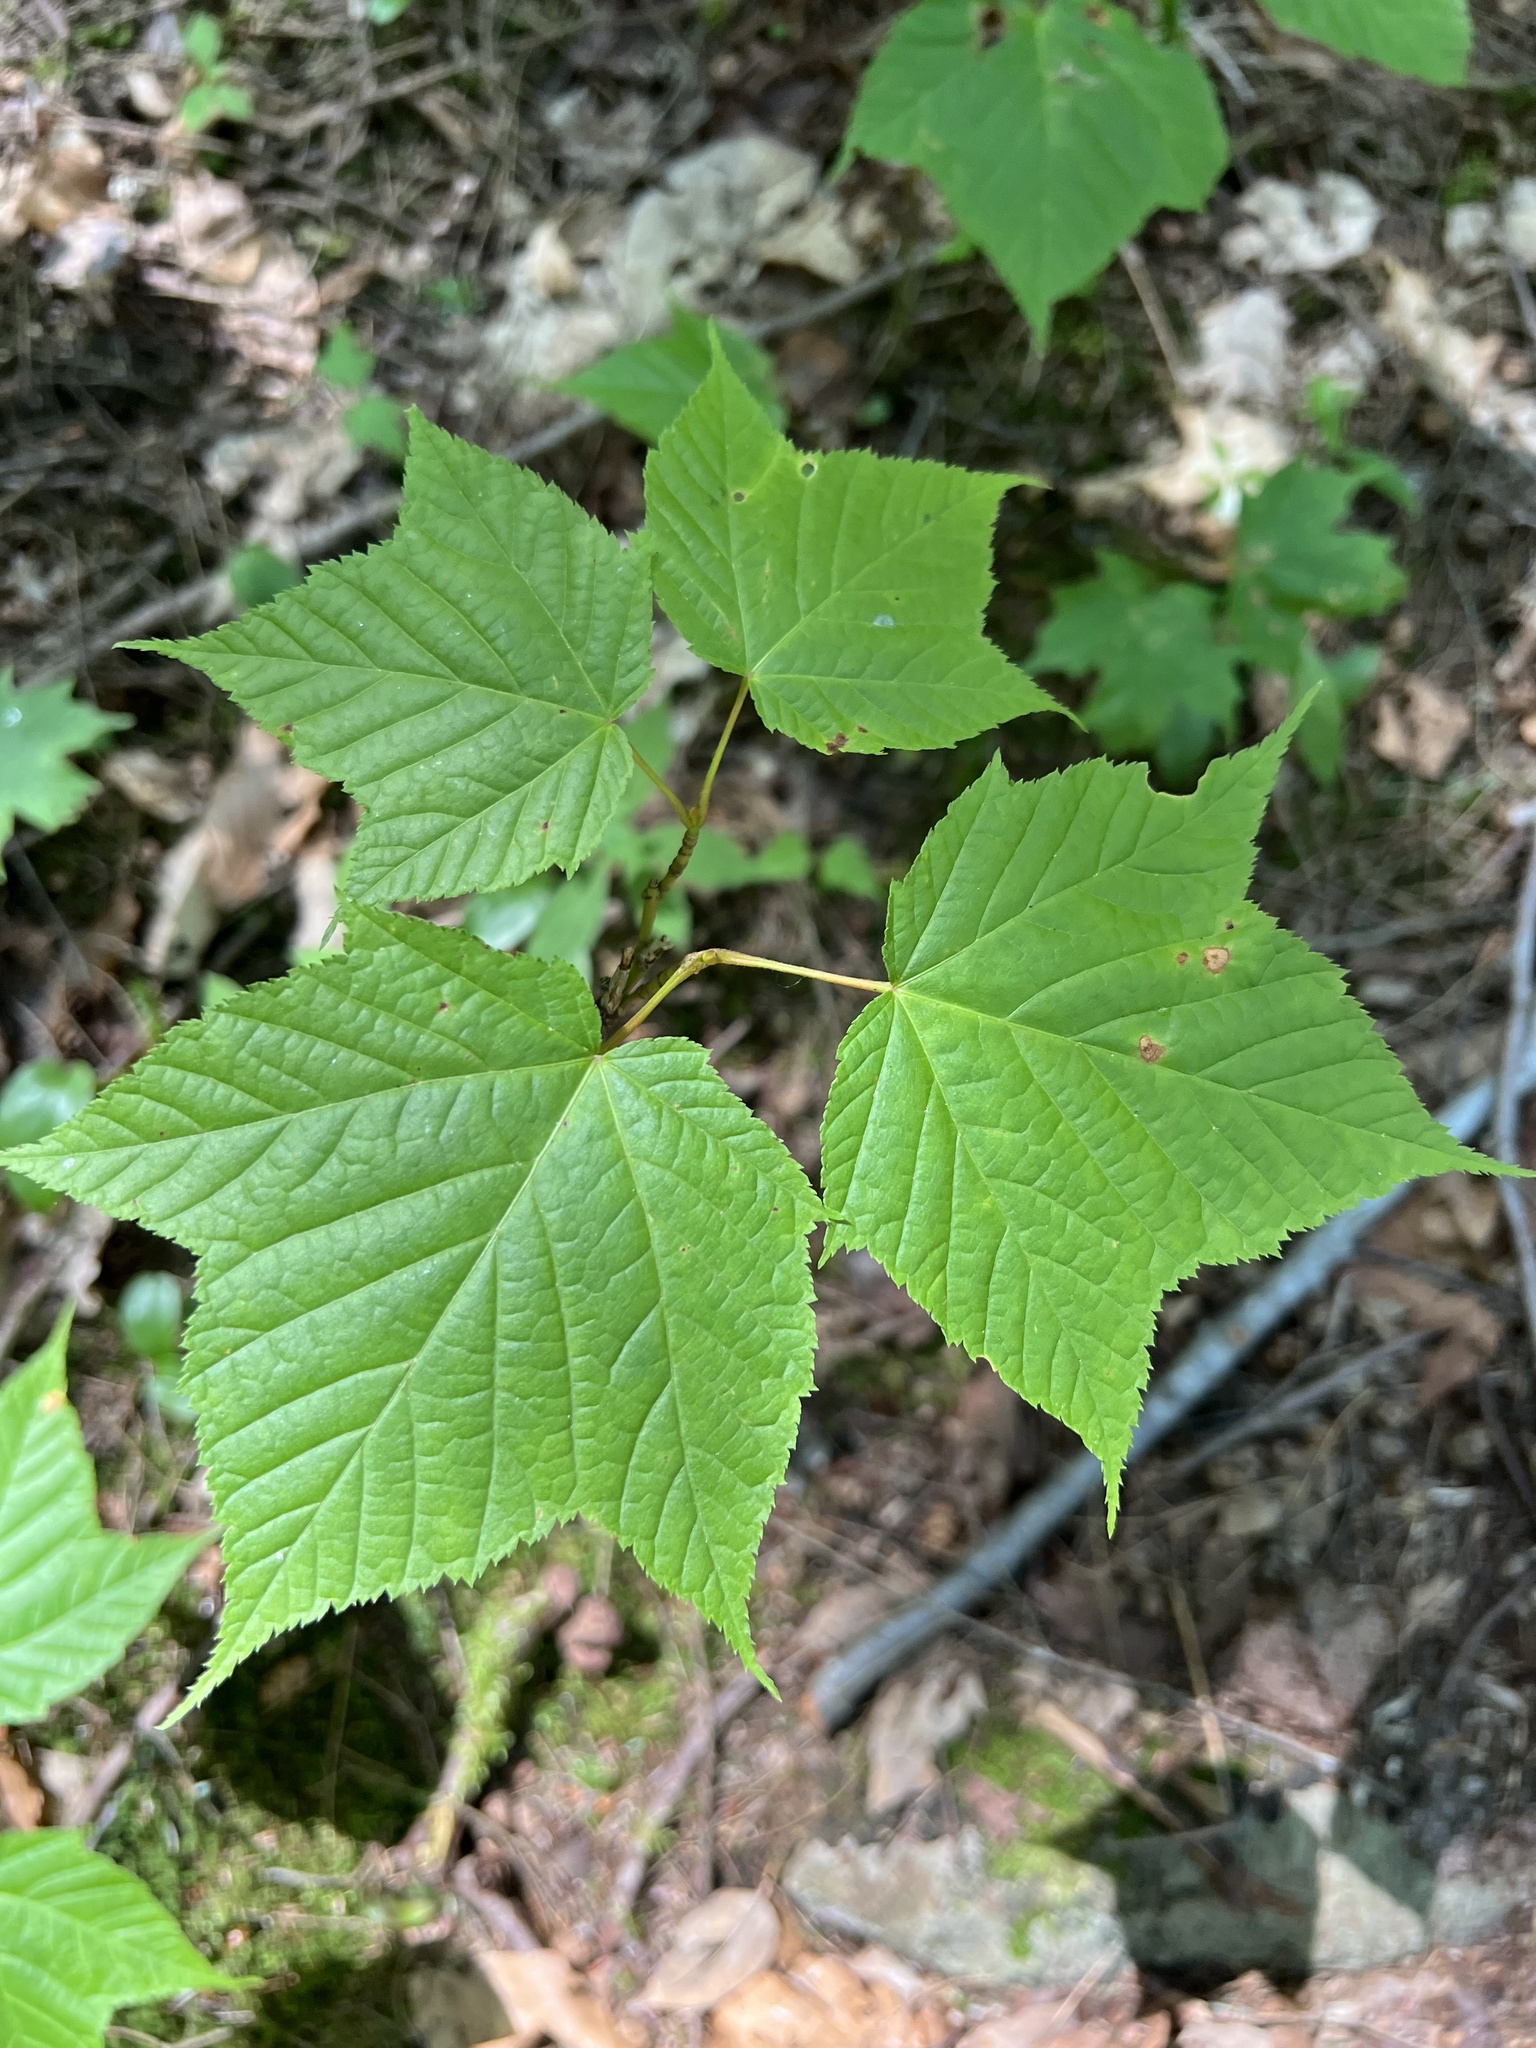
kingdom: Plantae
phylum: Tracheophyta
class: Magnoliopsida
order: Sapindales
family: Sapindaceae
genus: Acer
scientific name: Acer pensylvanicum
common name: Moosewood
